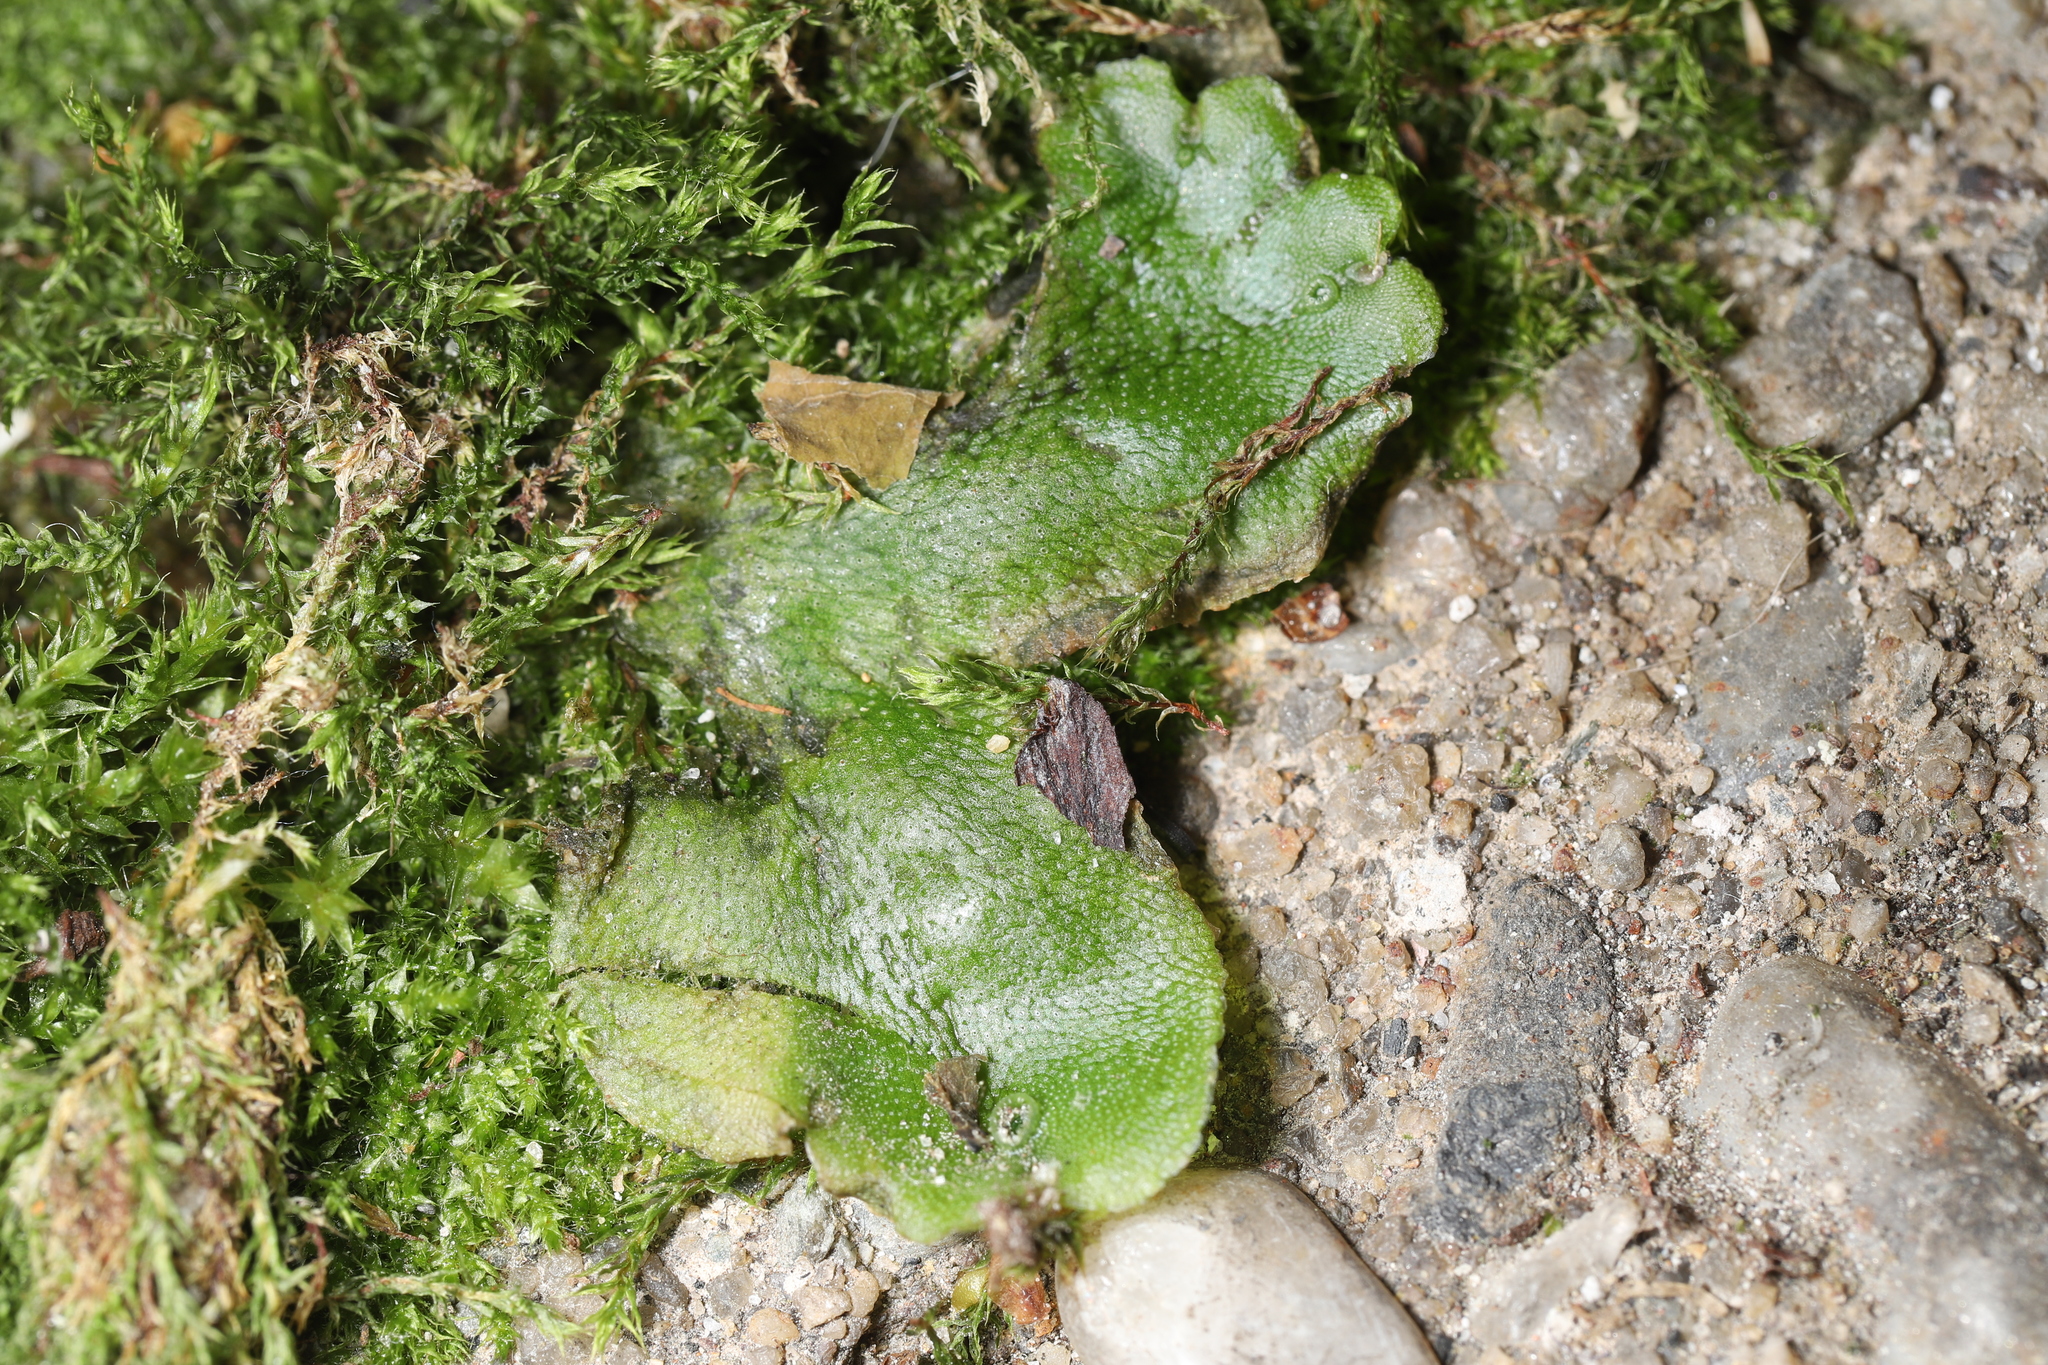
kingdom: Plantae
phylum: Marchantiophyta
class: Marchantiopsida
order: Marchantiales
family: Marchantiaceae
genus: Marchantia
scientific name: Marchantia polymorpha
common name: Common liverwort
